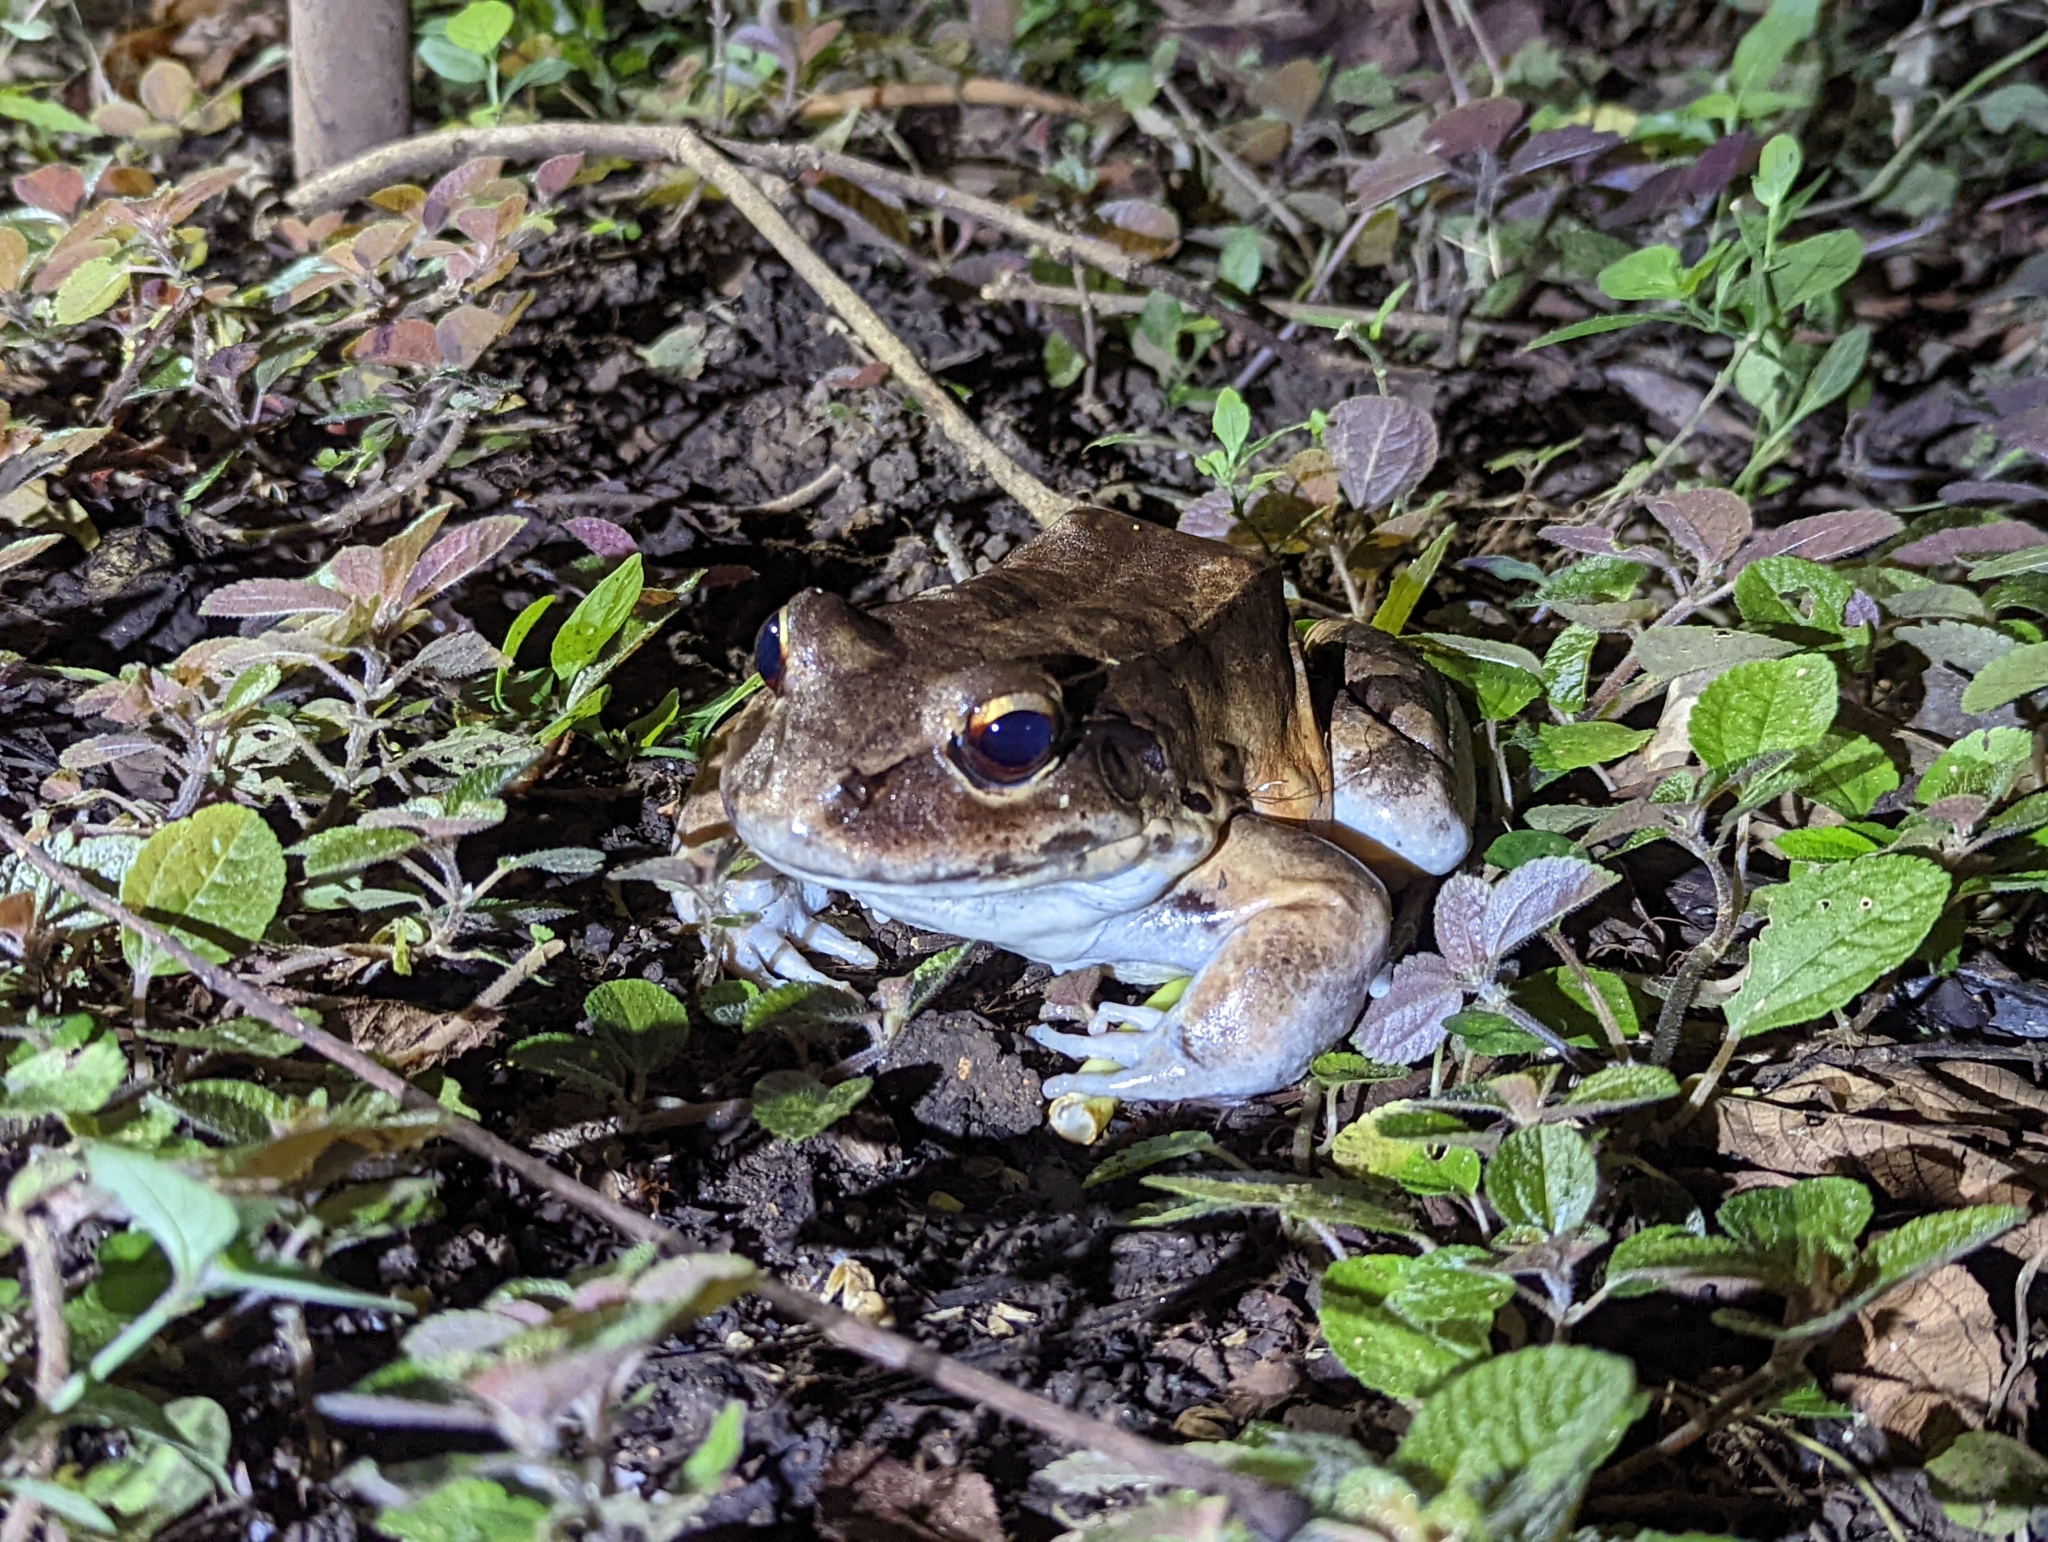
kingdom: Animalia
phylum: Chordata
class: Amphibia
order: Anura
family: Leptodactylidae
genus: Leptodactylus
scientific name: Leptodactylus savagei
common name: Savage's thin-toed frog
